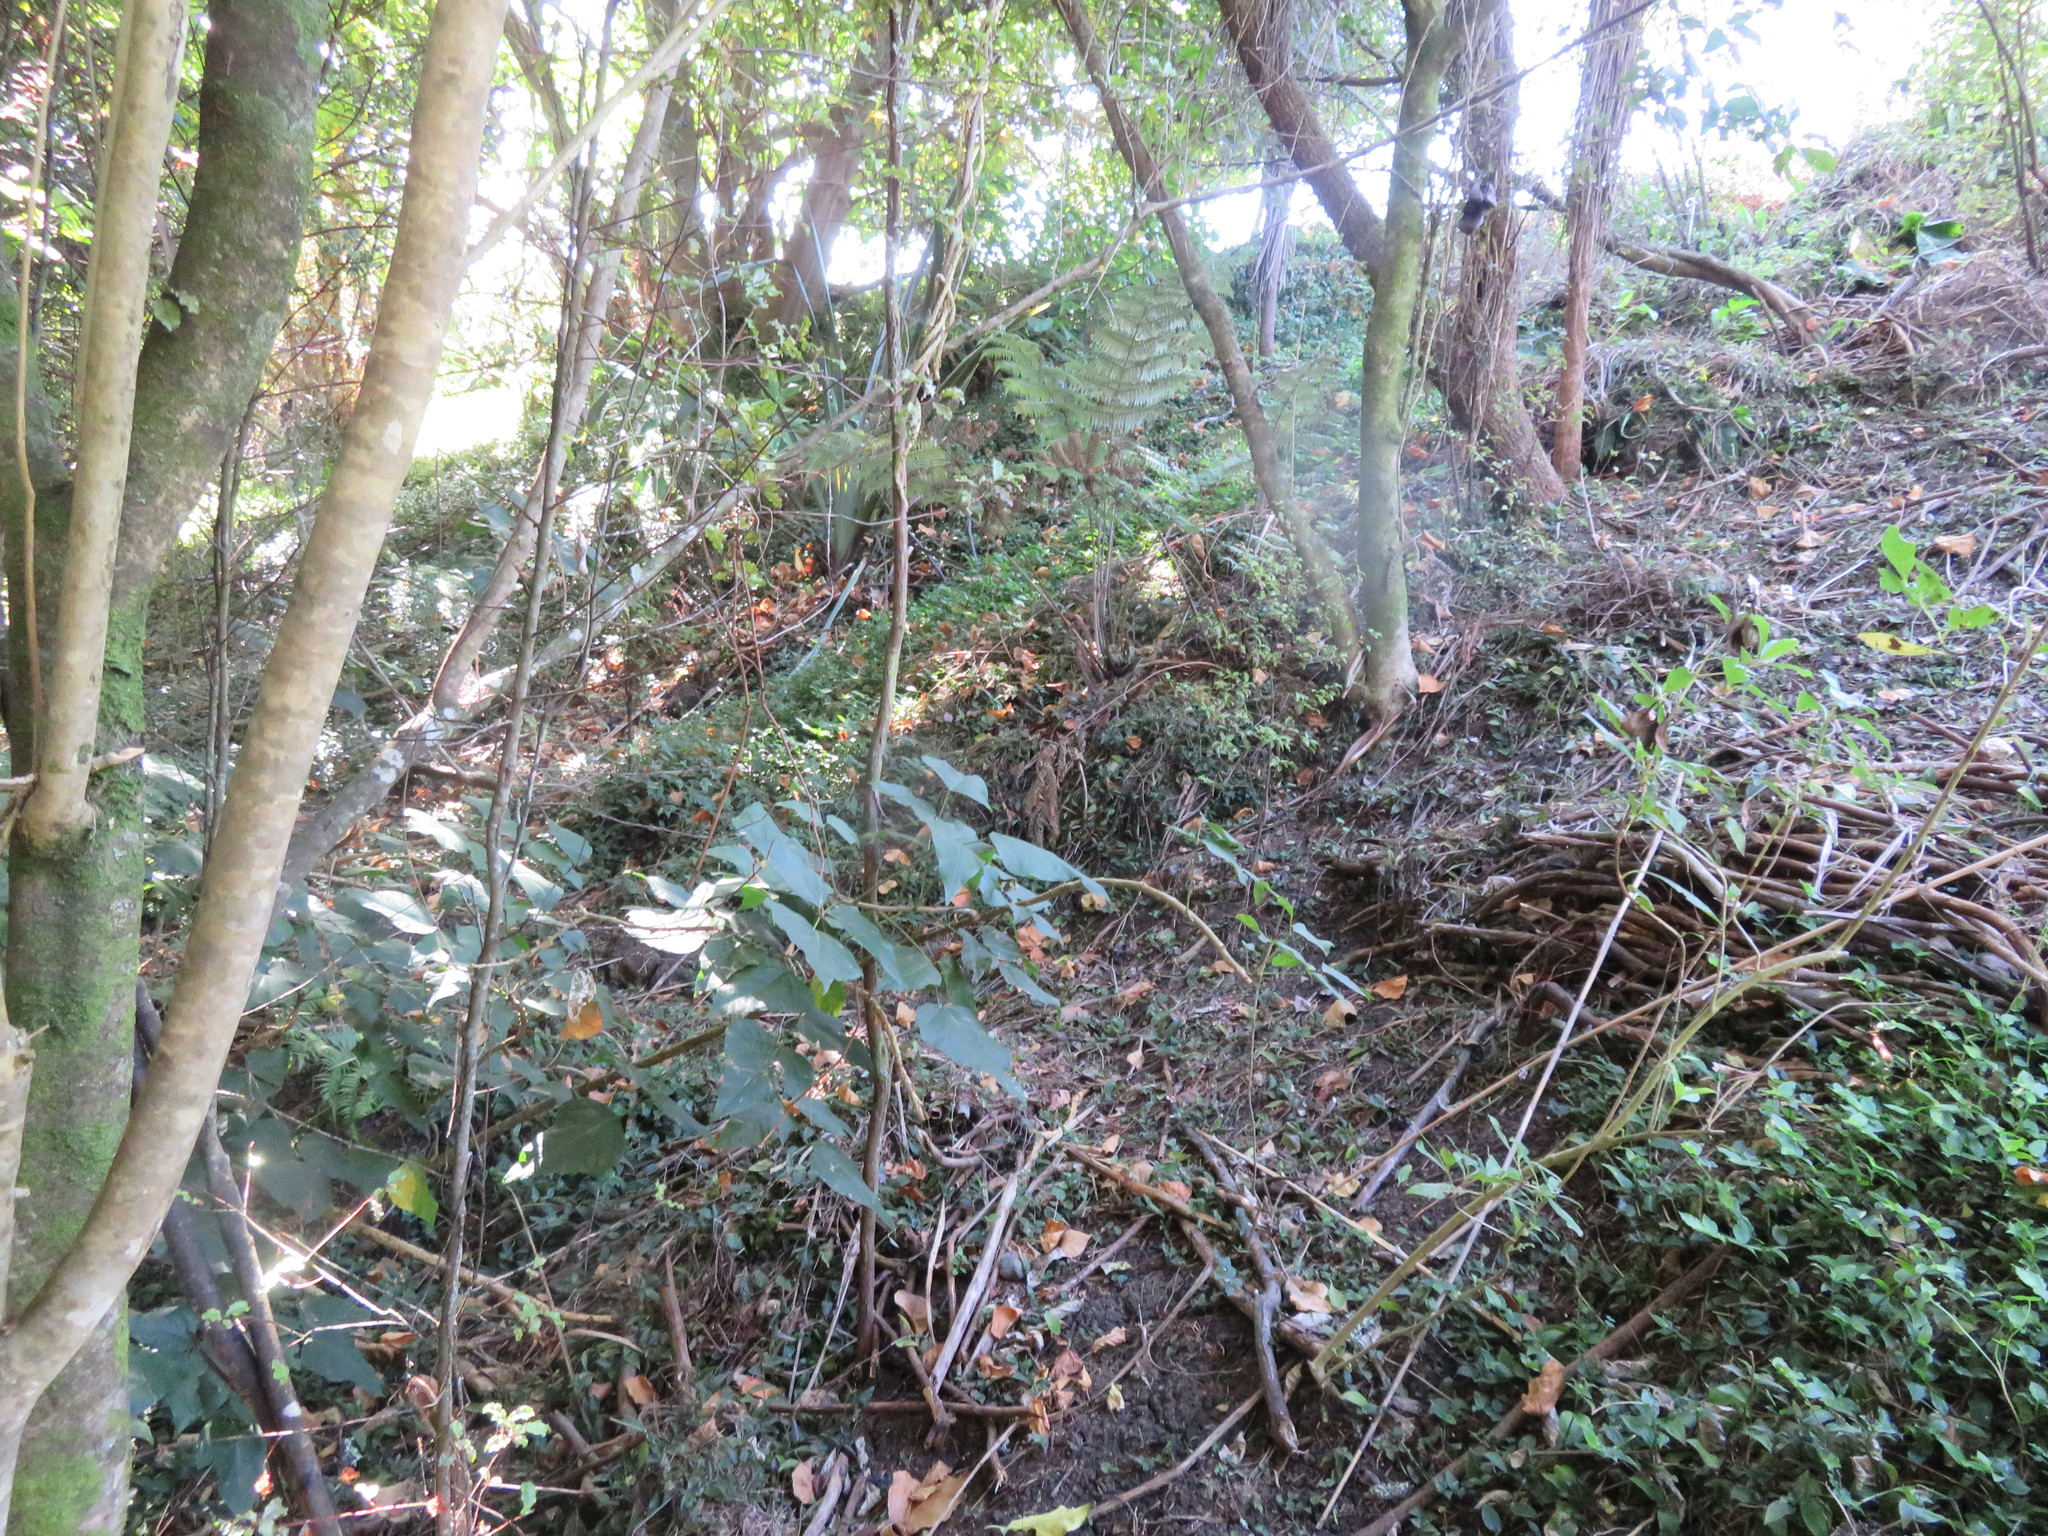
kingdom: Plantae
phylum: Tracheophyta
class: Liliopsida
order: Commelinales
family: Commelinaceae
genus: Tradescantia
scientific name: Tradescantia fluminensis
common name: Wandering-jew
